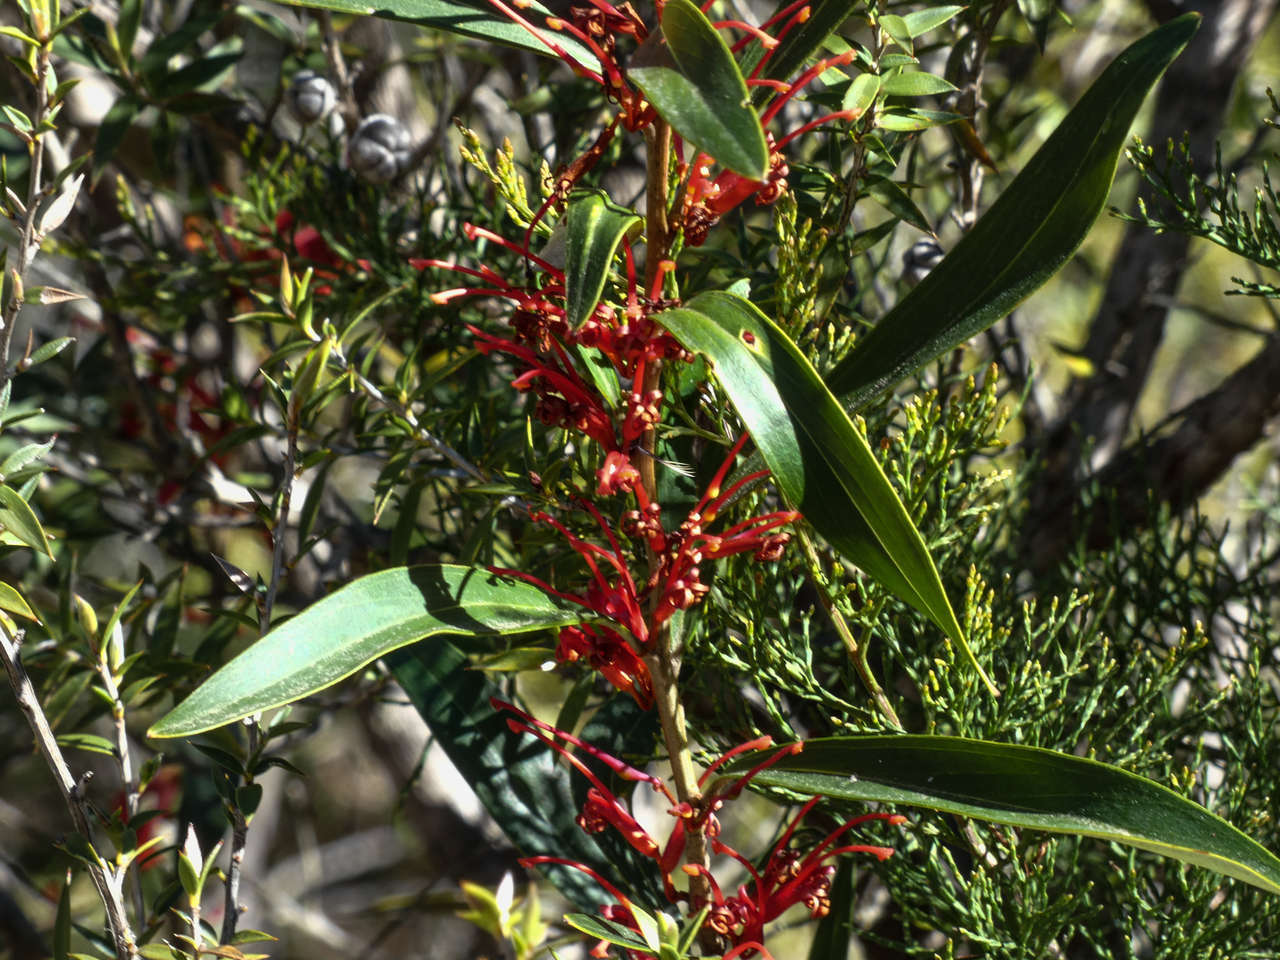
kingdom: Plantae
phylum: Tracheophyta
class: Magnoliopsida
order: Proteales
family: Proteaceae
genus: Grevillea
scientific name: Grevillea dimorpha
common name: Flame grevillea
